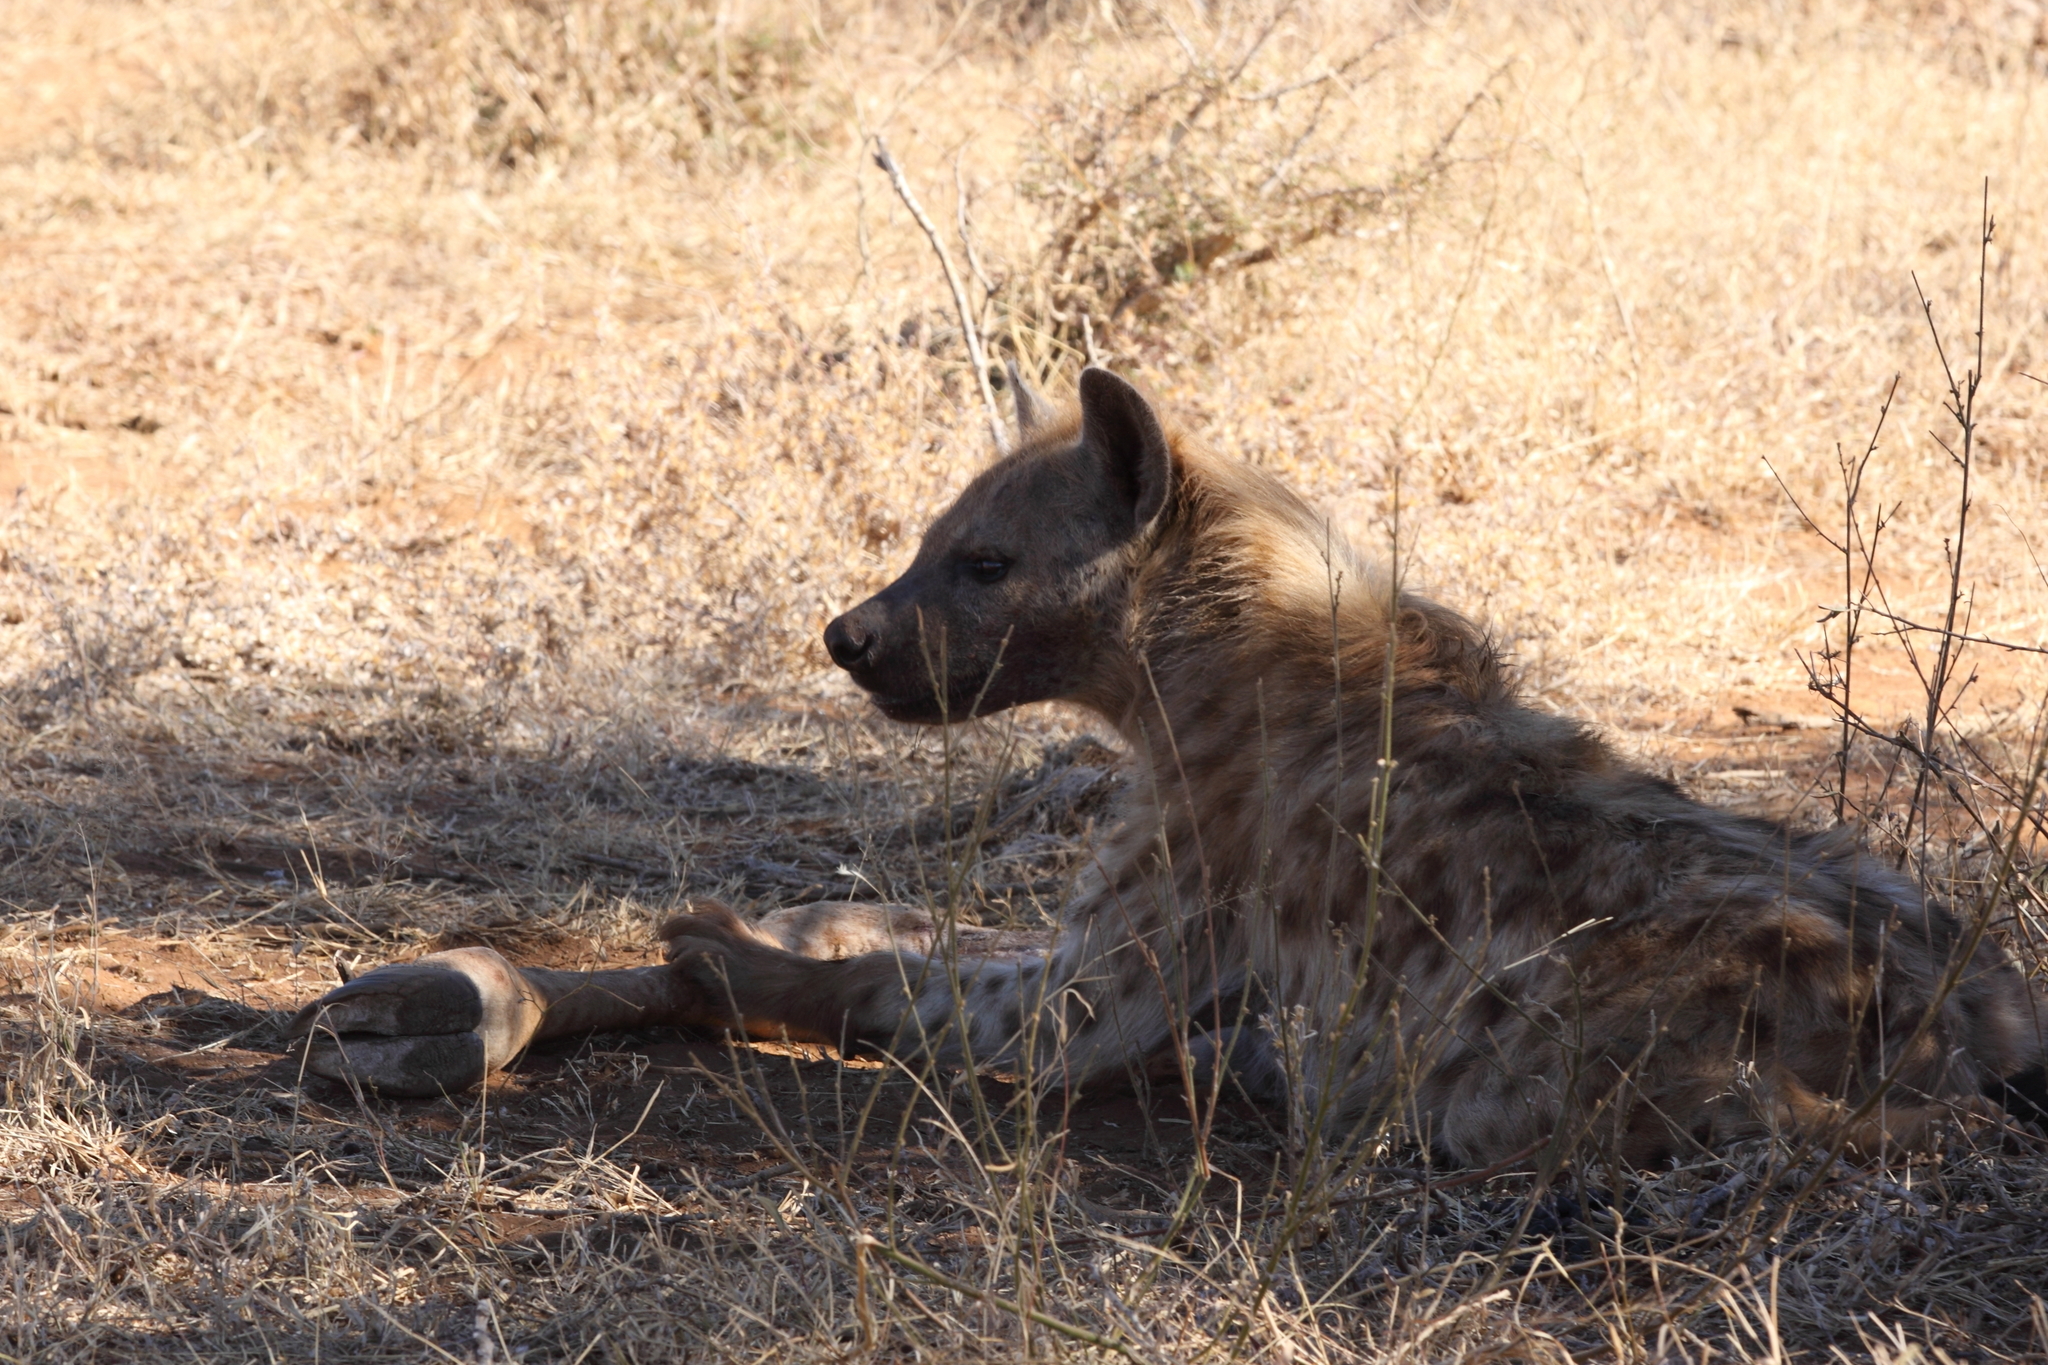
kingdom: Animalia
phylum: Chordata
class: Mammalia
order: Carnivora
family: Hyaenidae
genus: Crocuta
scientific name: Crocuta crocuta
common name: Spotted hyaena
